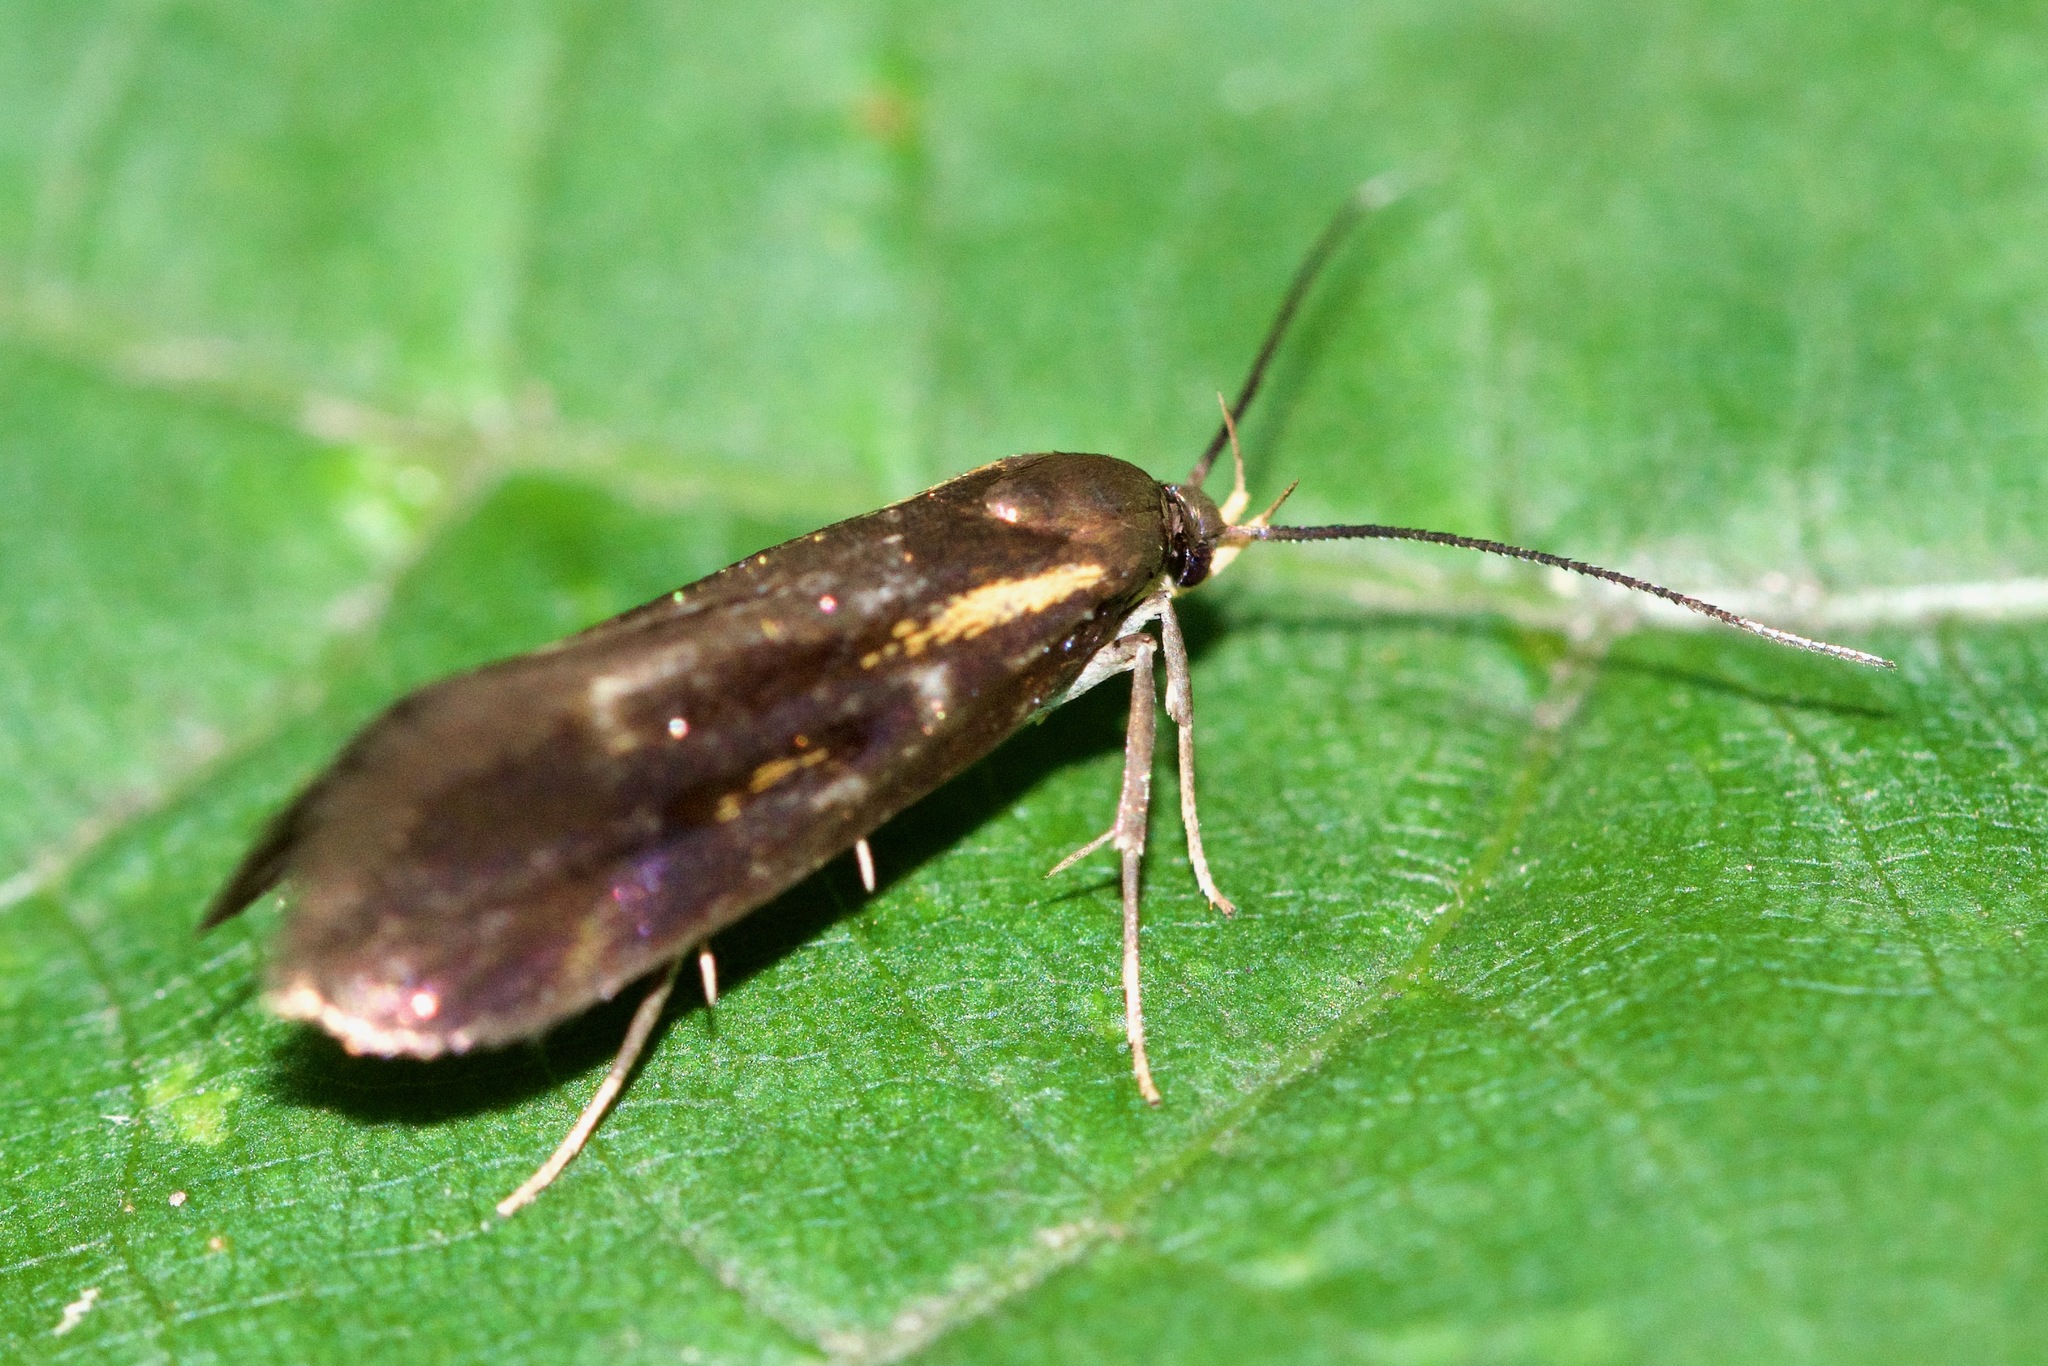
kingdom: Animalia
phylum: Arthropoda
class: Insecta
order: Lepidoptera
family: Oecophoridae
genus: Mathildana
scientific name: Mathildana flipria
